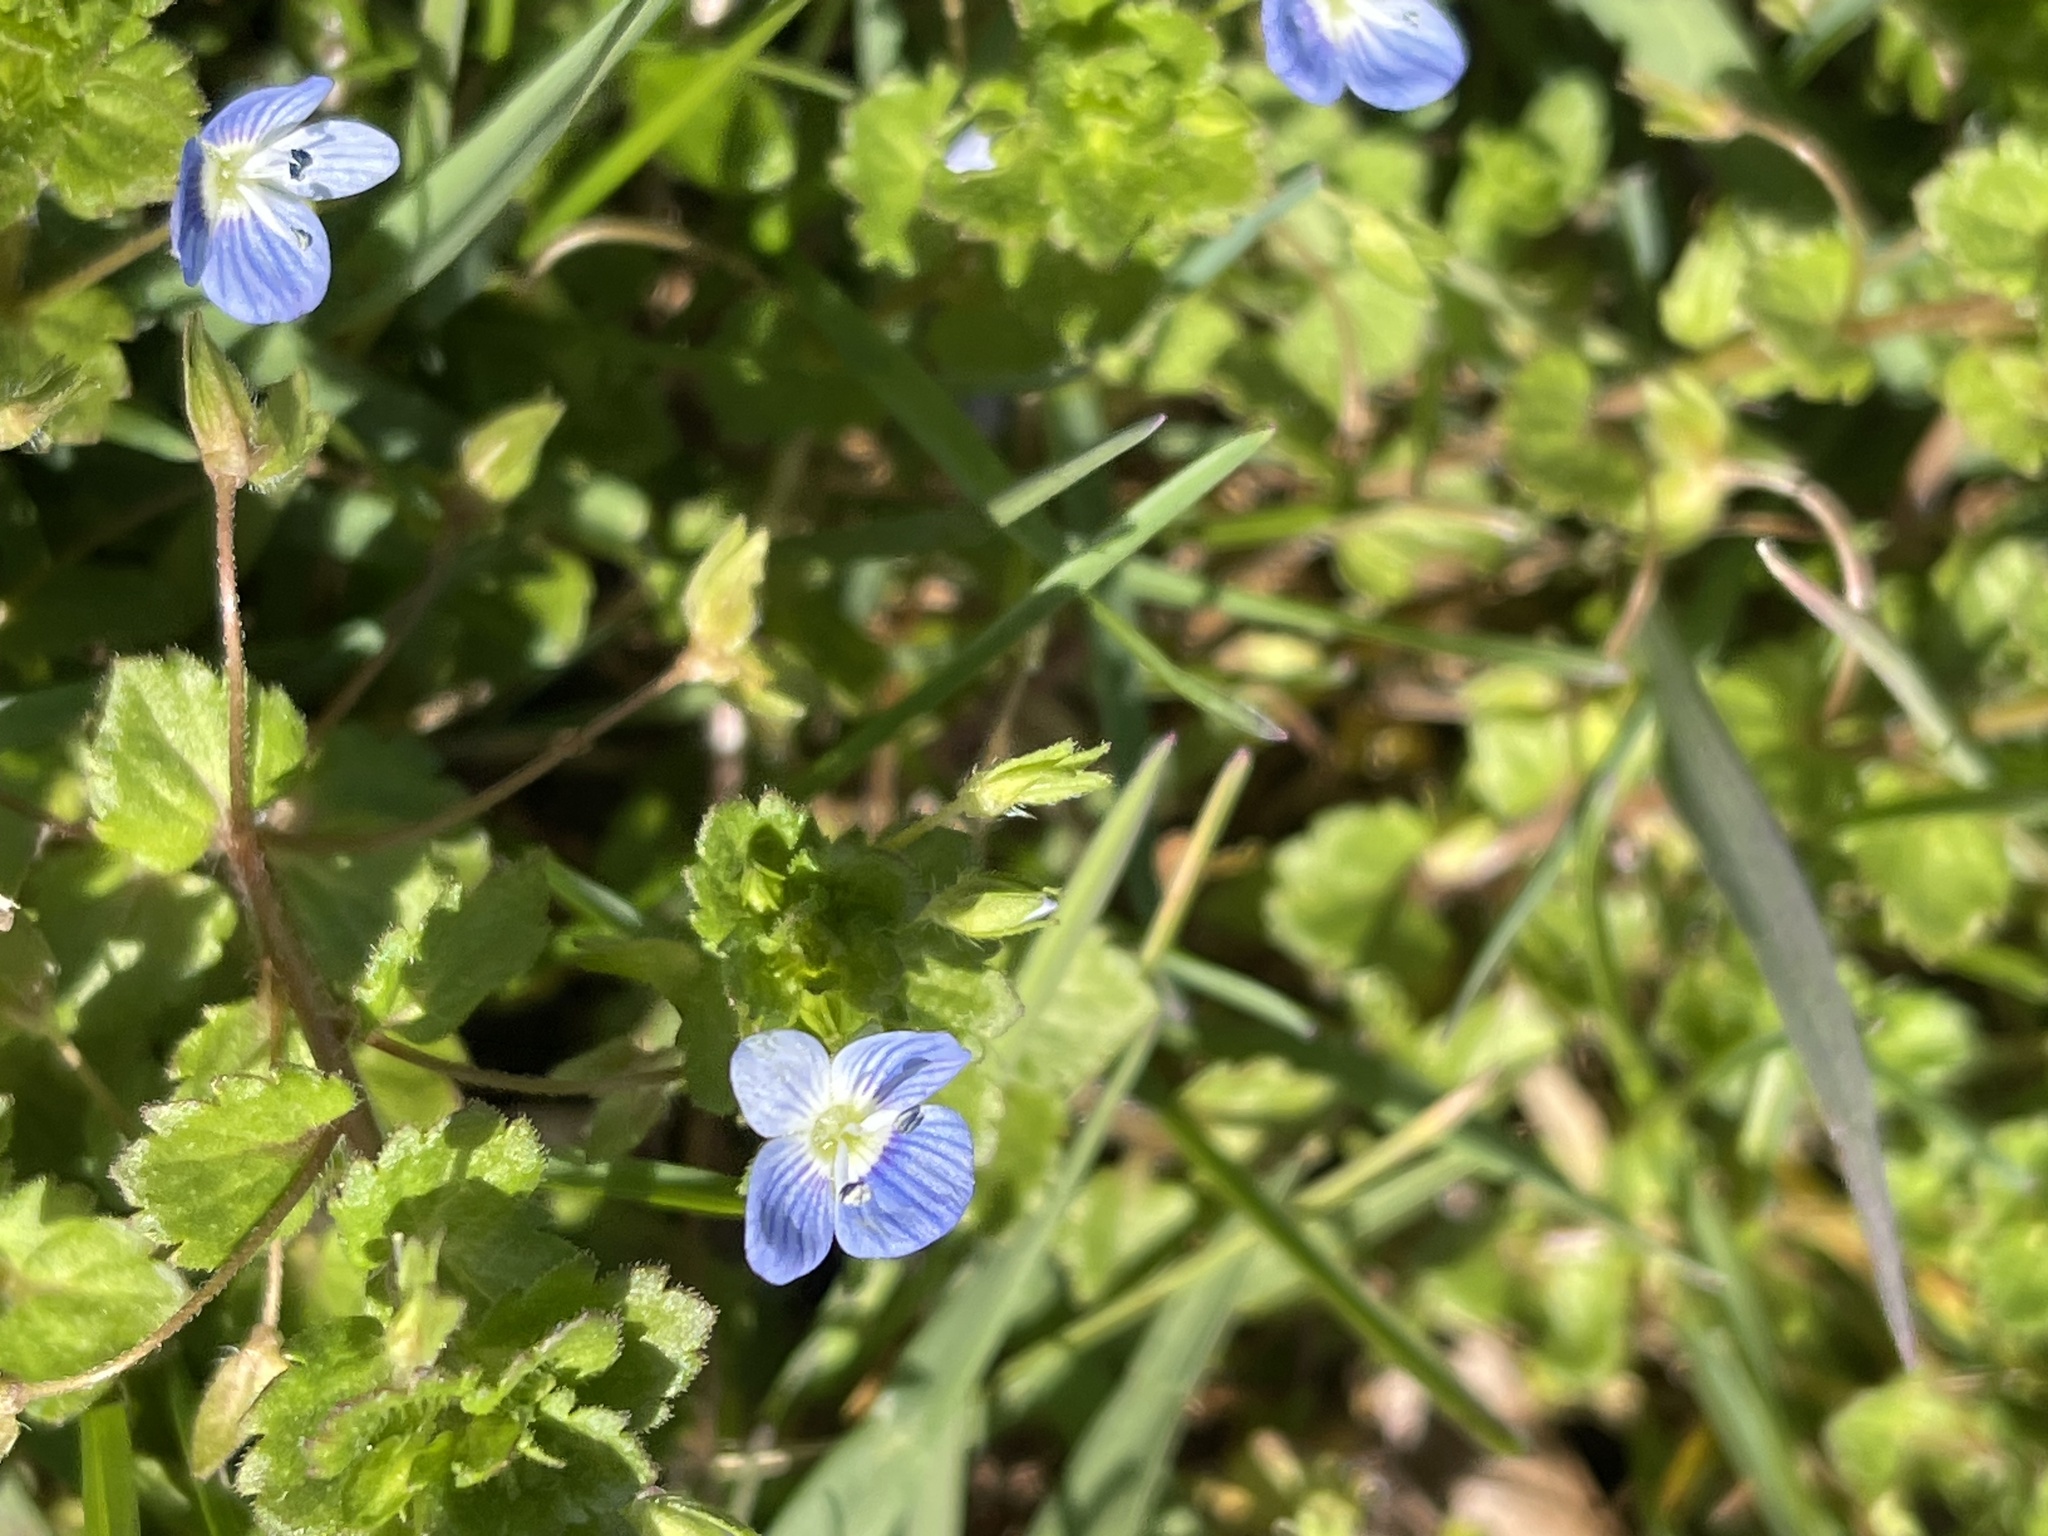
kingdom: Plantae
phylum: Tracheophyta
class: Magnoliopsida
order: Lamiales
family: Plantaginaceae
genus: Veronica
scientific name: Veronica persica
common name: Common field-speedwell
